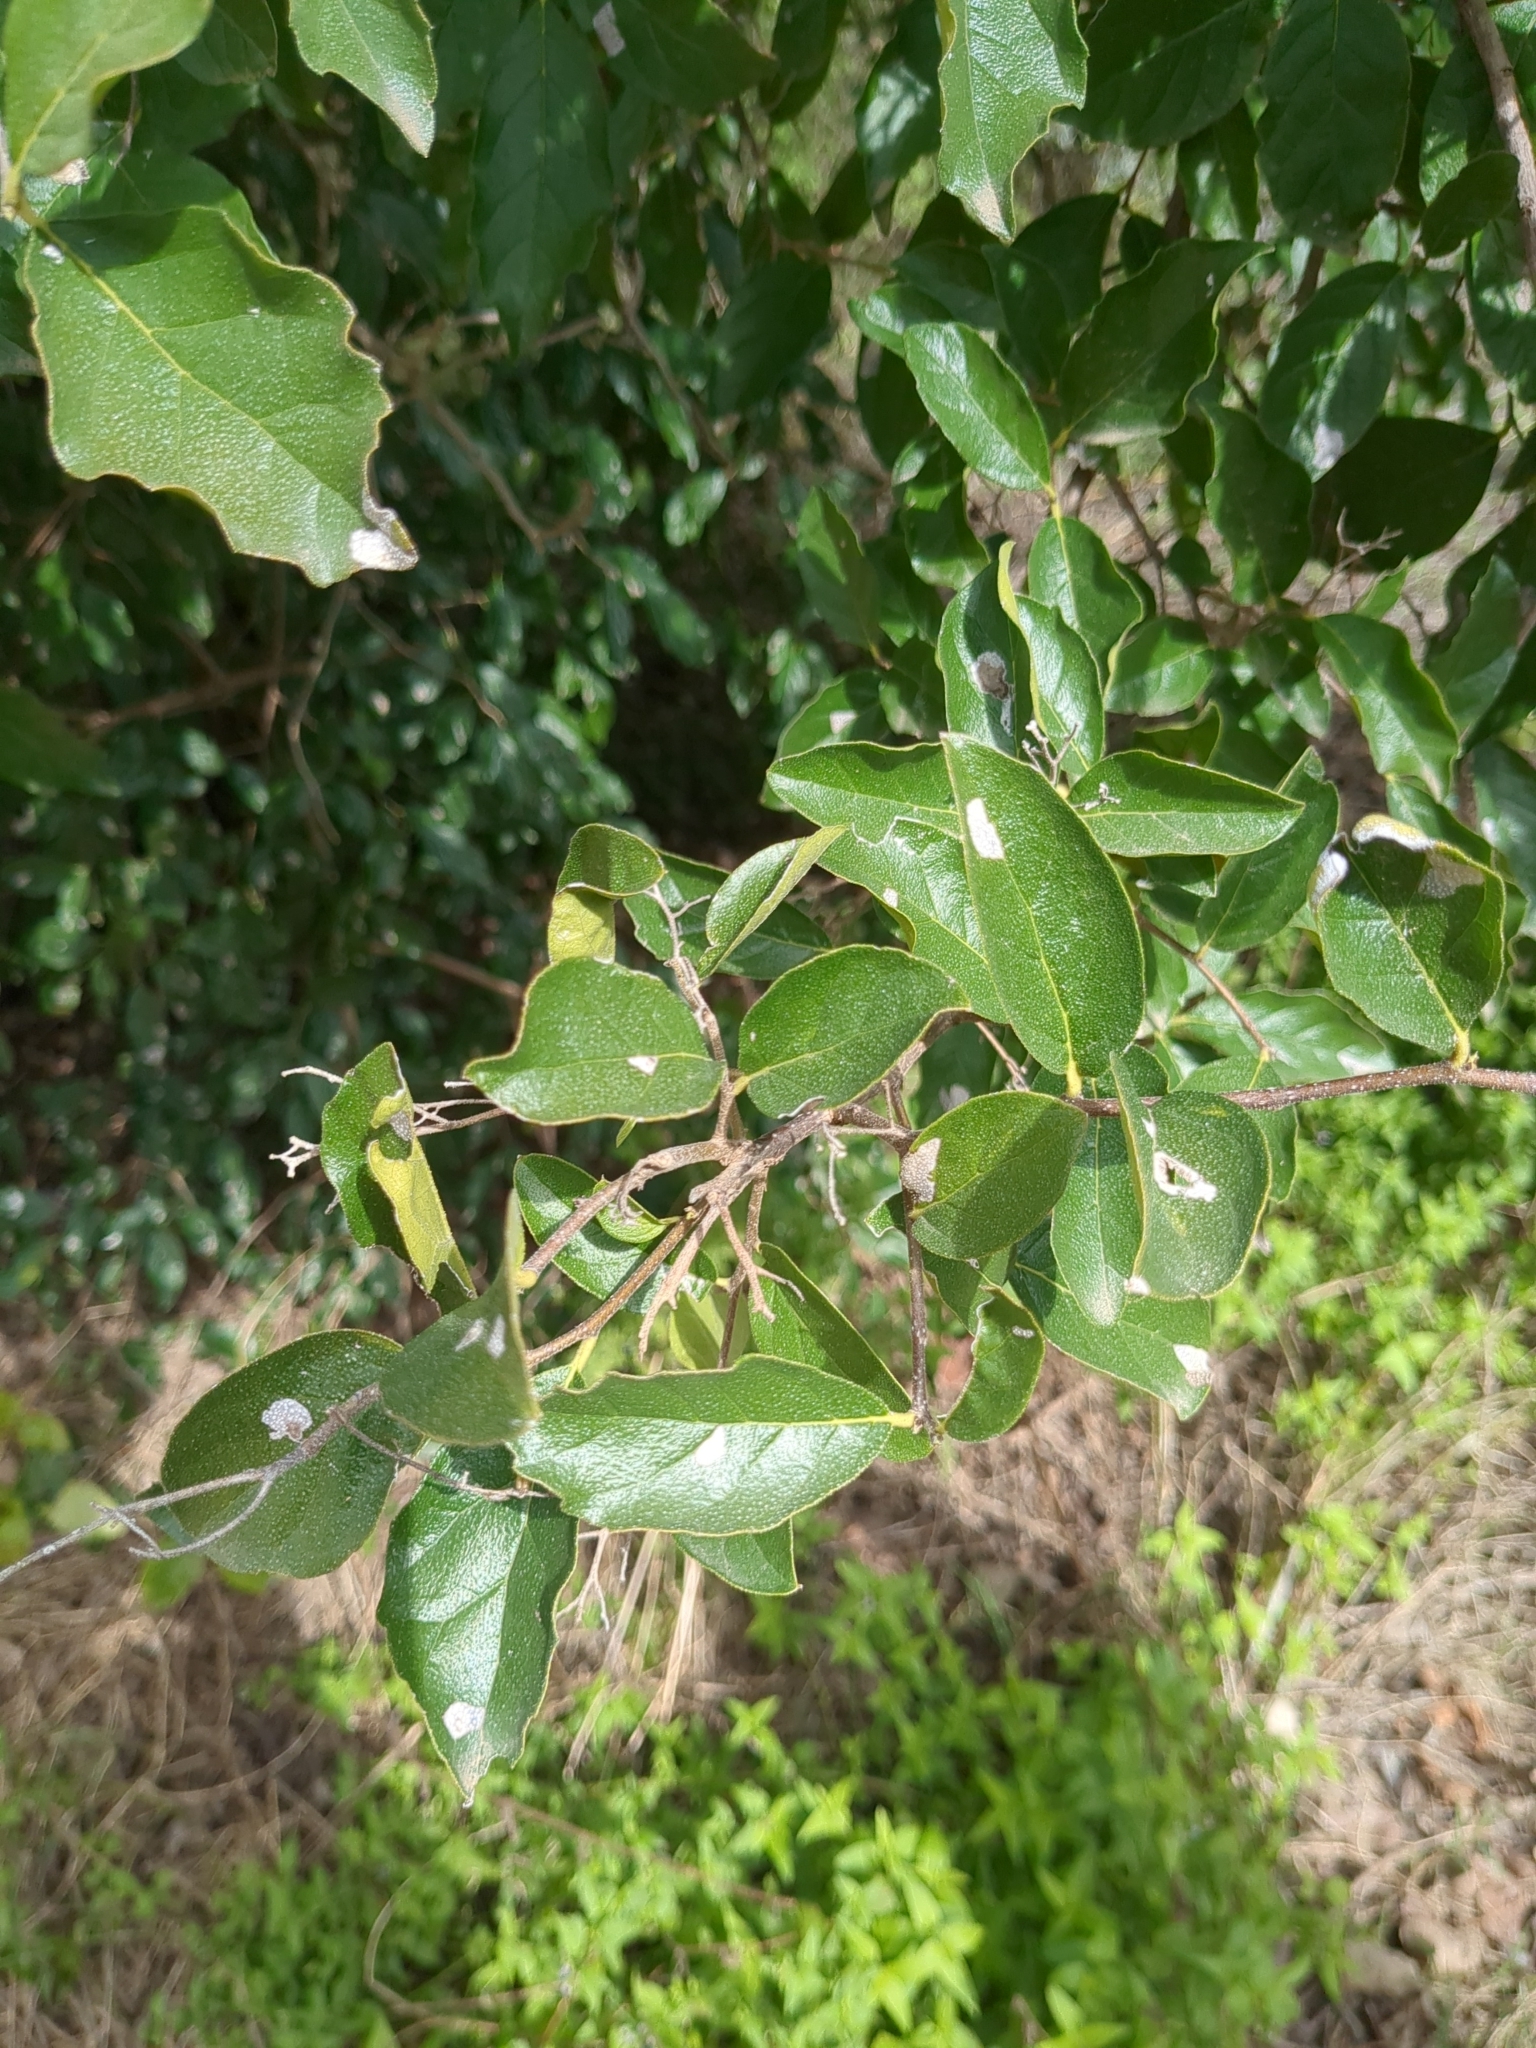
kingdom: Plantae
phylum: Tracheophyta
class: Magnoliopsida
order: Boraginales
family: Ehretiaceae
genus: Ehretia
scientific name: Ehretia anacua
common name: Sugarberry
